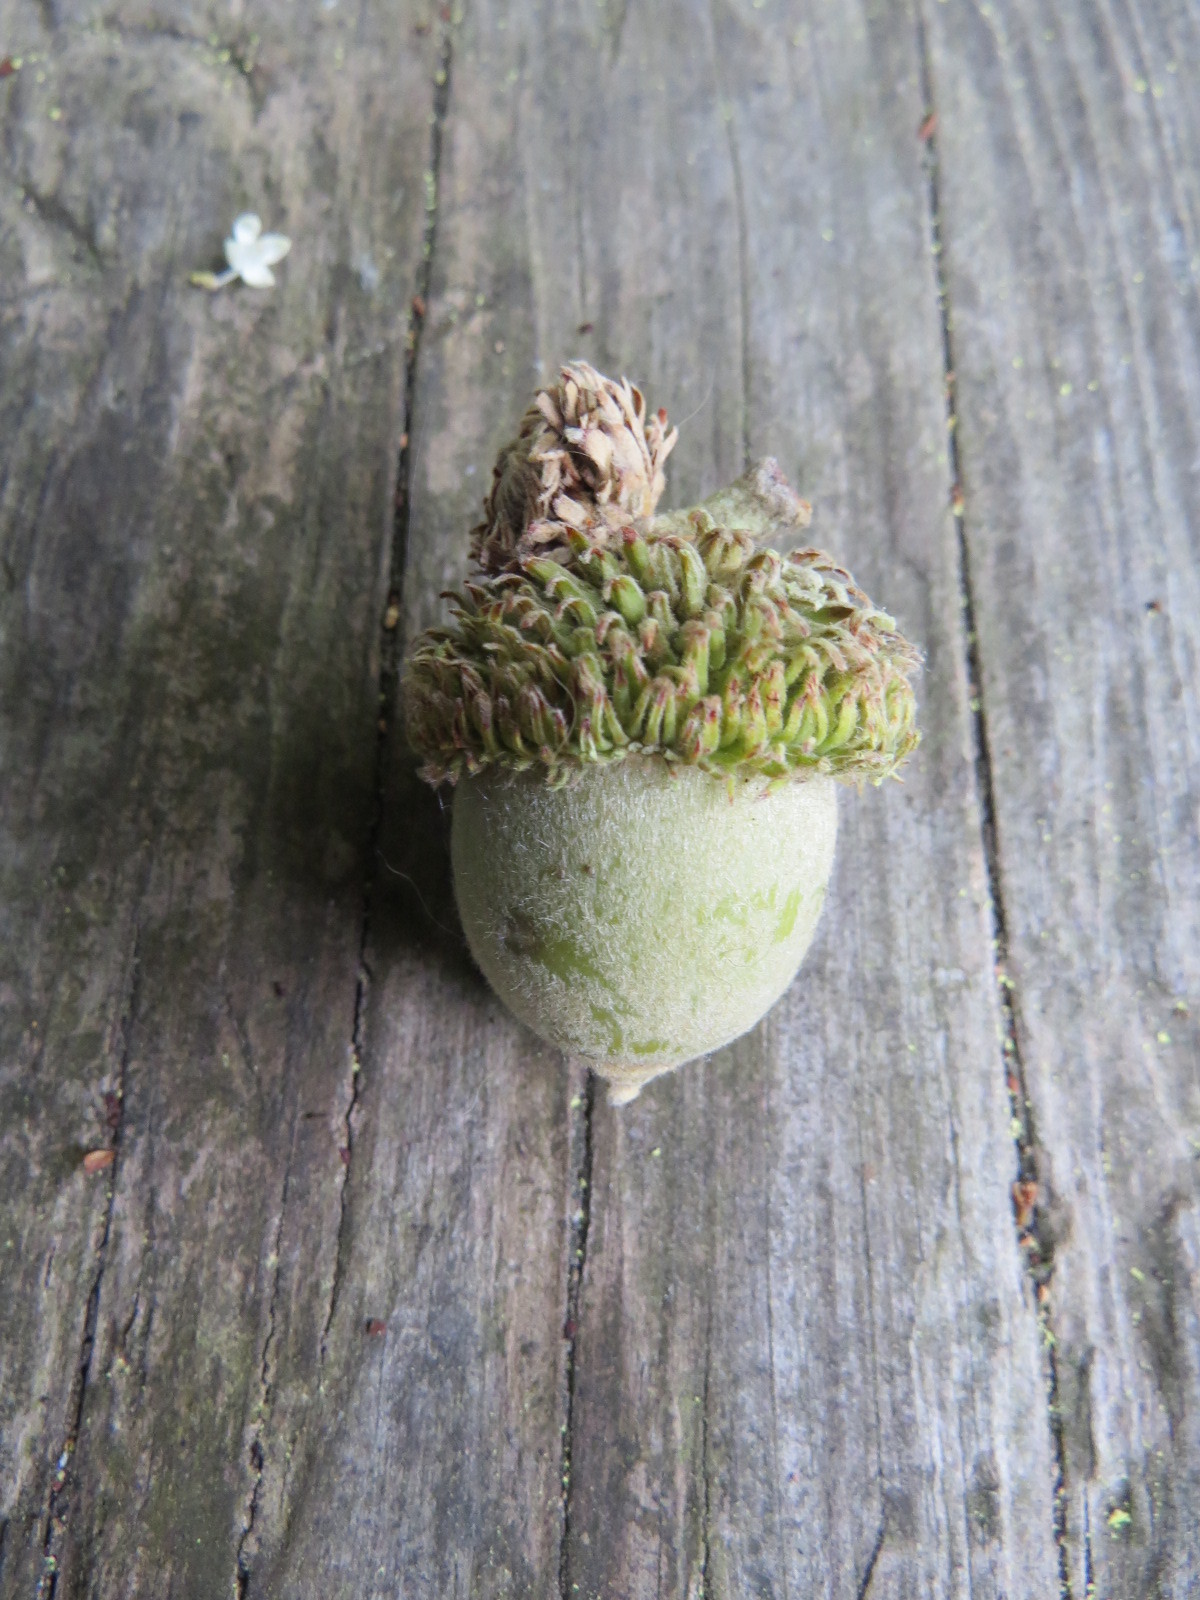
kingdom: Plantae
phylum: Tracheophyta
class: Magnoliopsida
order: Fagales
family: Fagaceae
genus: Notholithocarpus
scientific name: Notholithocarpus densiflorus
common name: Tan bark oak
